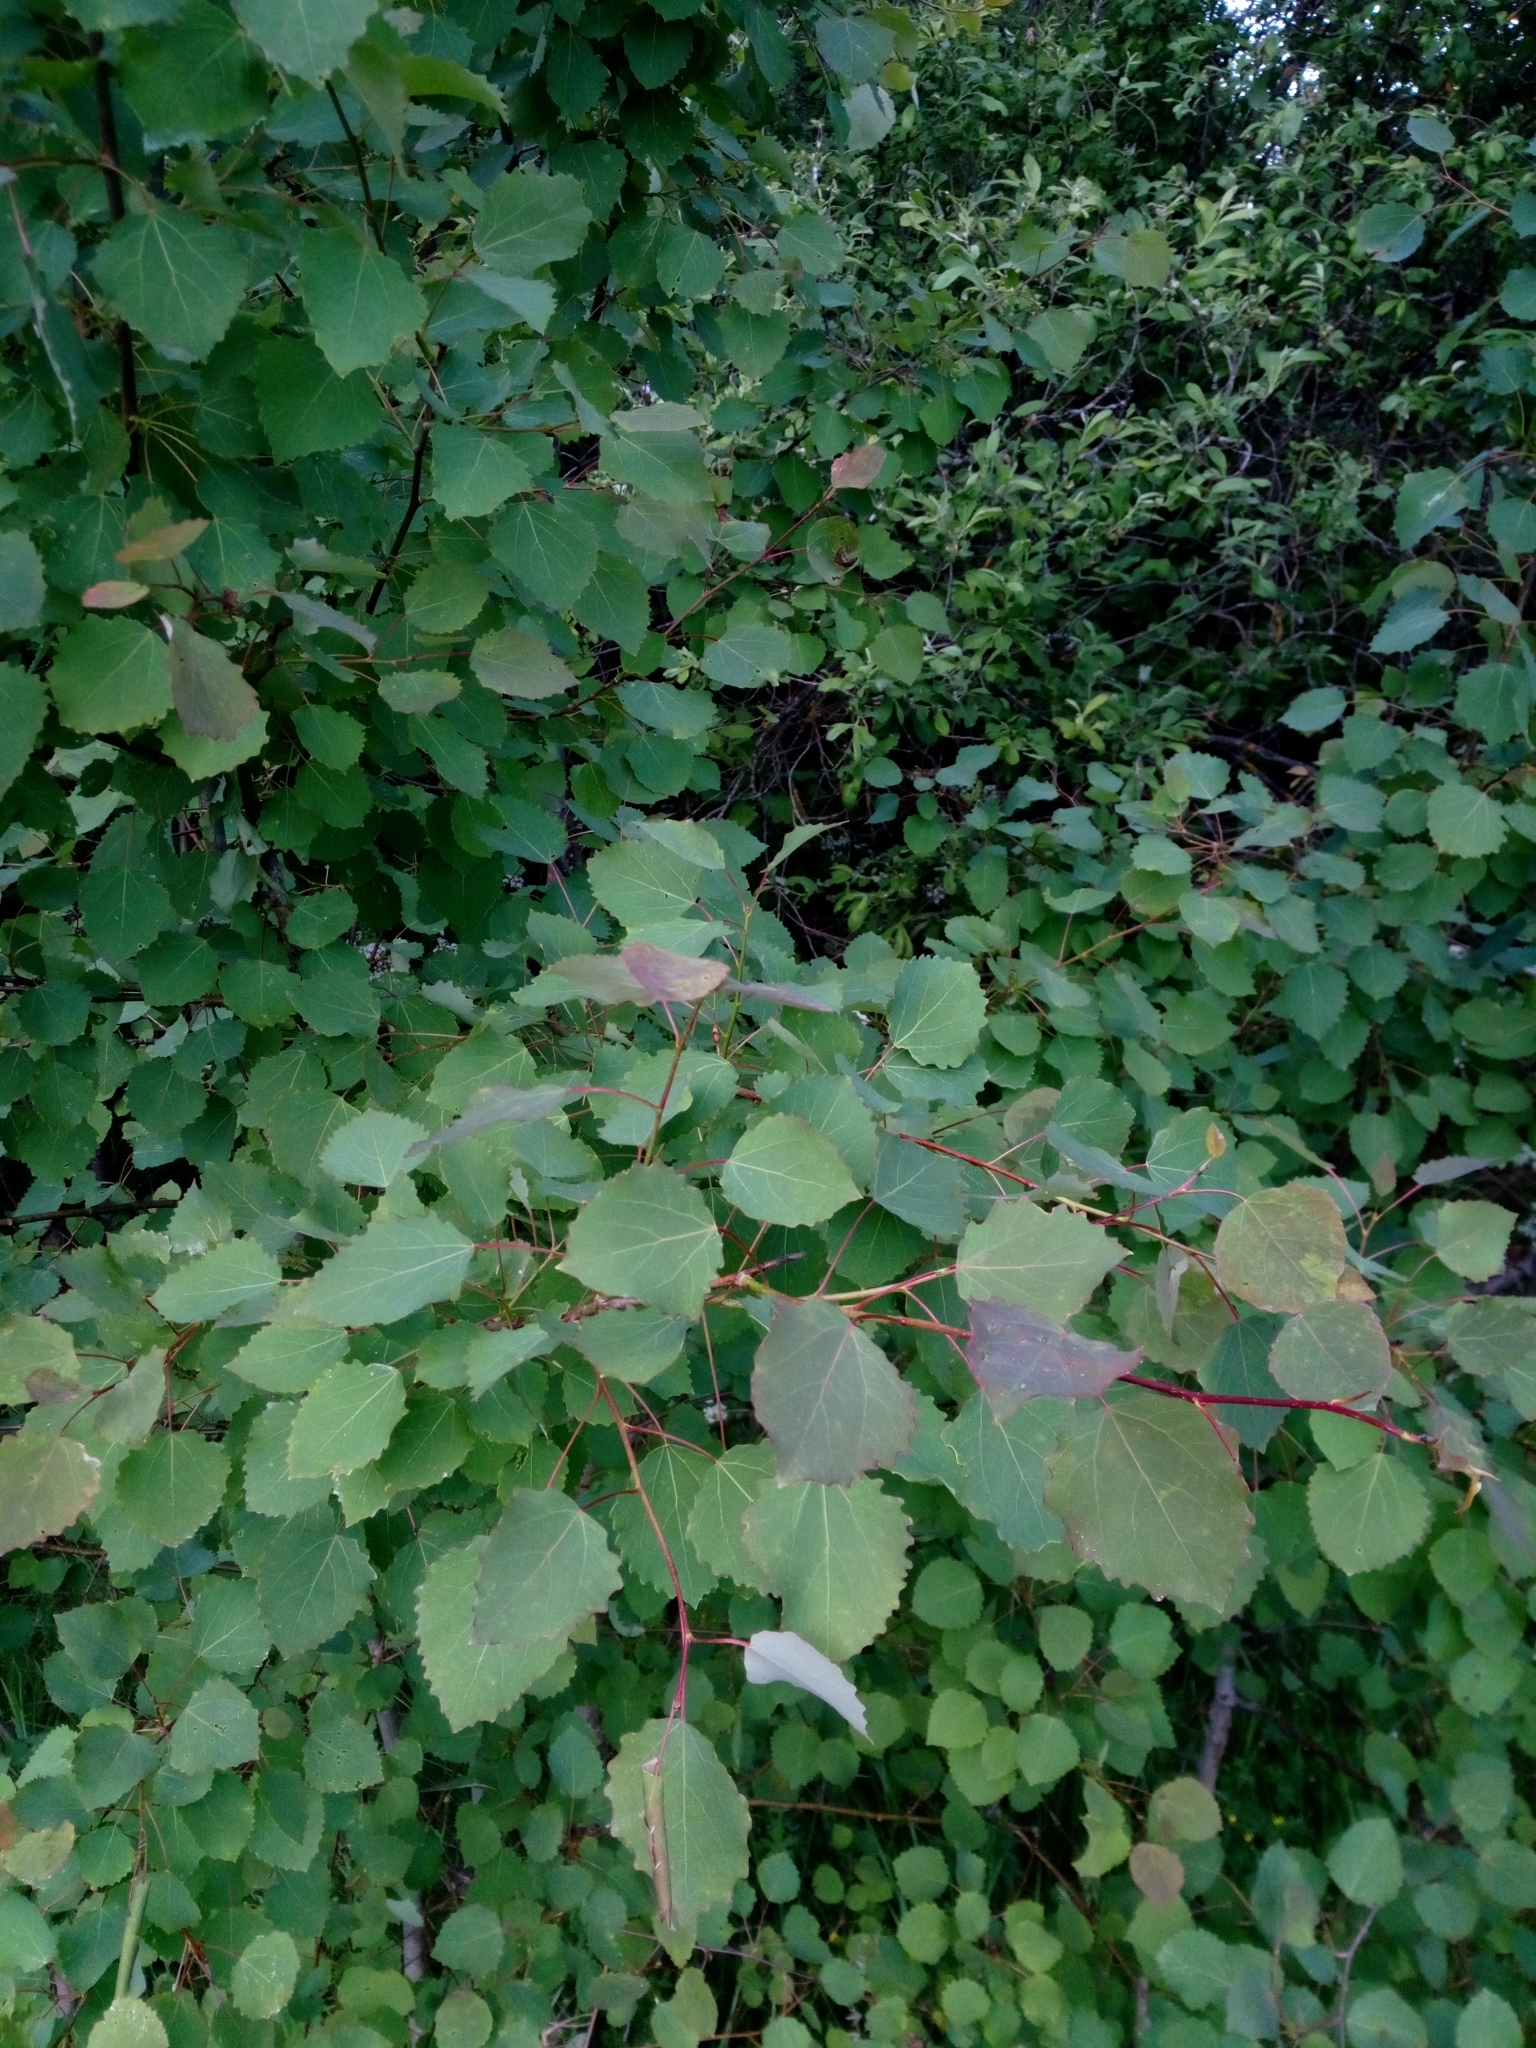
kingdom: Plantae
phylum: Tracheophyta
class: Magnoliopsida
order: Malpighiales
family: Salicaceae
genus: Populus
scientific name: Populus tremula
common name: European aspen
